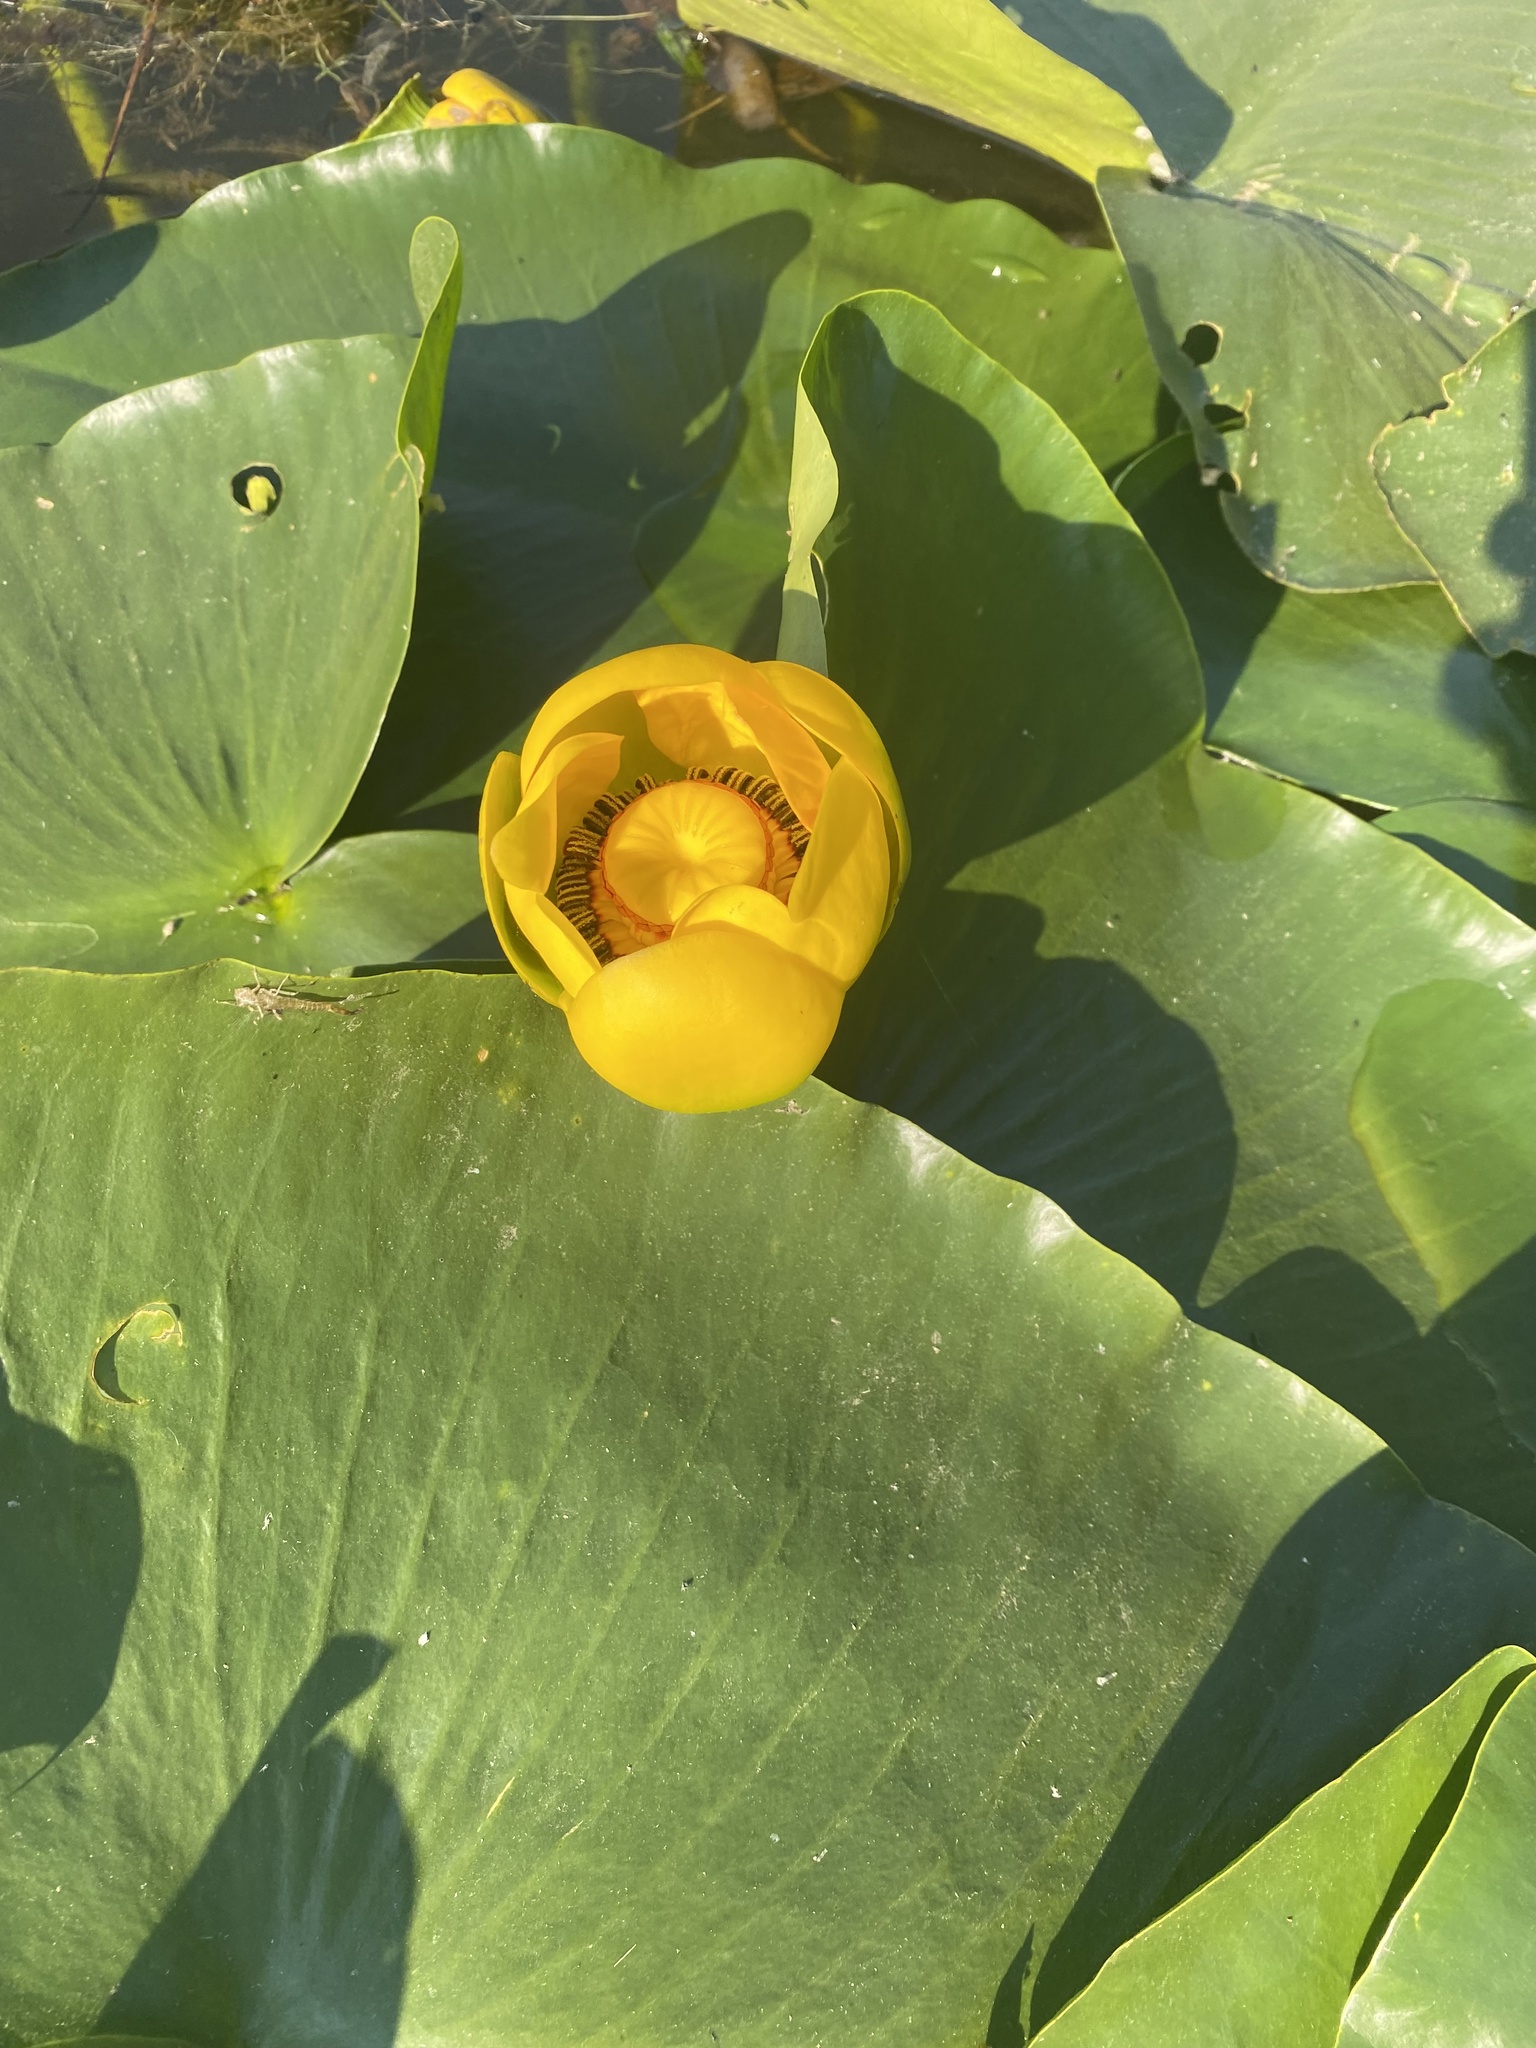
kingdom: Plantae
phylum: Tracheophyta
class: Magnoliopsida
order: Nymphaeales
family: Nymphaeaceae
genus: Nuphar
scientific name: Nuphar polysepala
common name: Rocky mountain cow-lily
